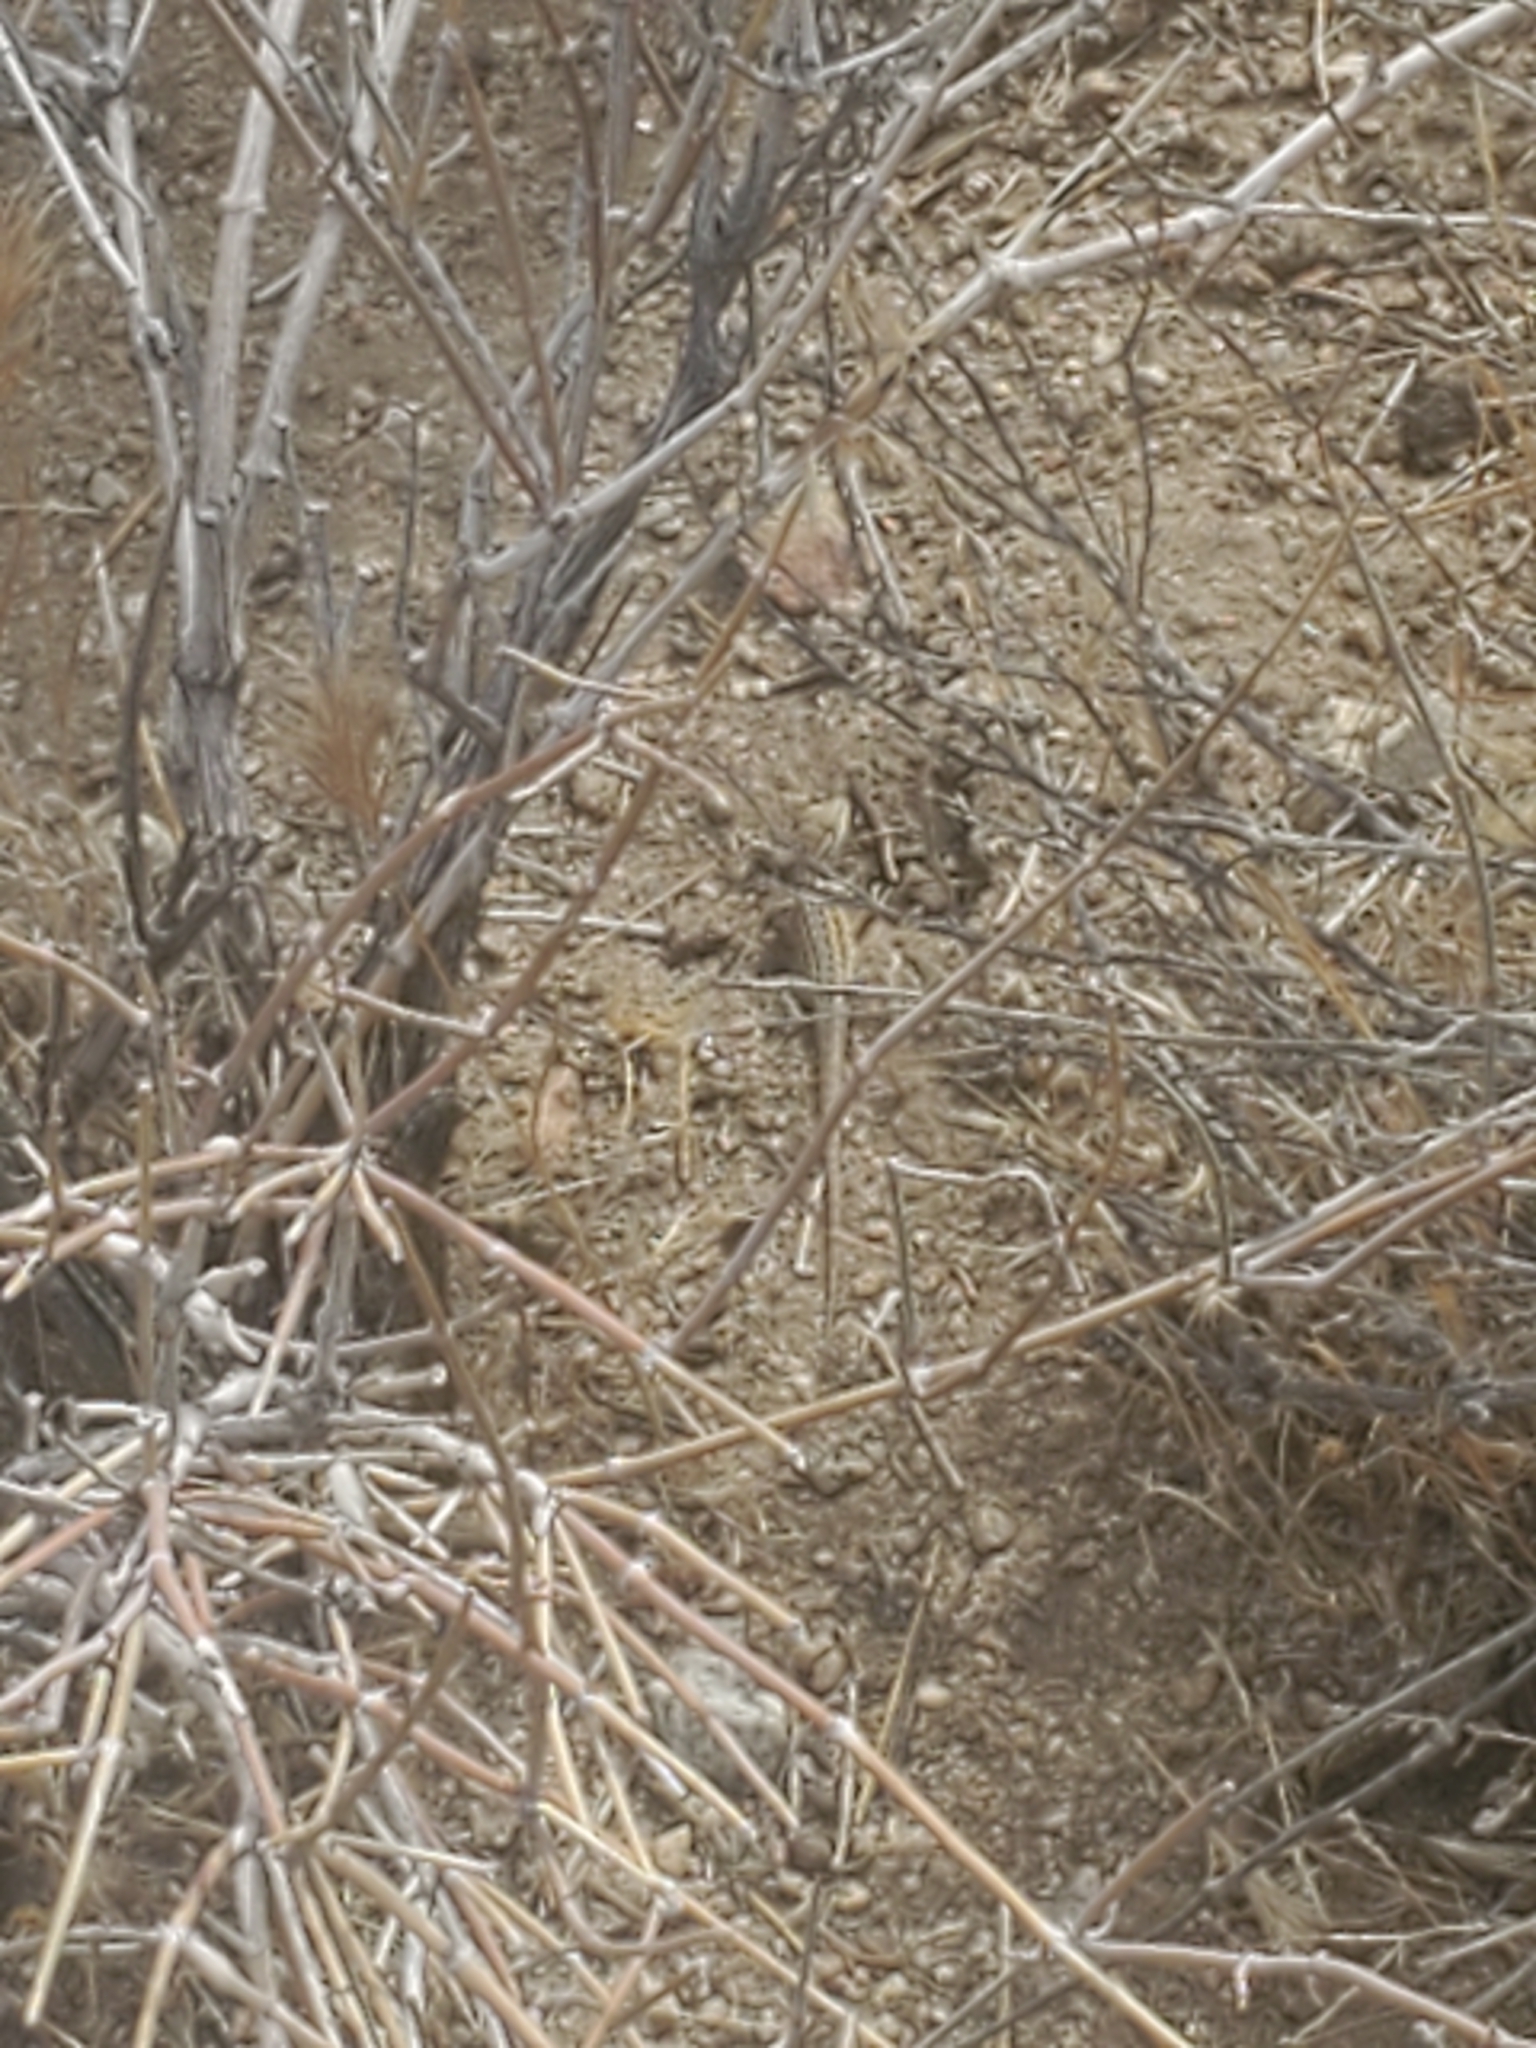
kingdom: Animalia
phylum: Chordata
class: Squamata
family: Phrynosomatidae
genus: Uta
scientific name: Uta stansburiana
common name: Side-blotched lizard
